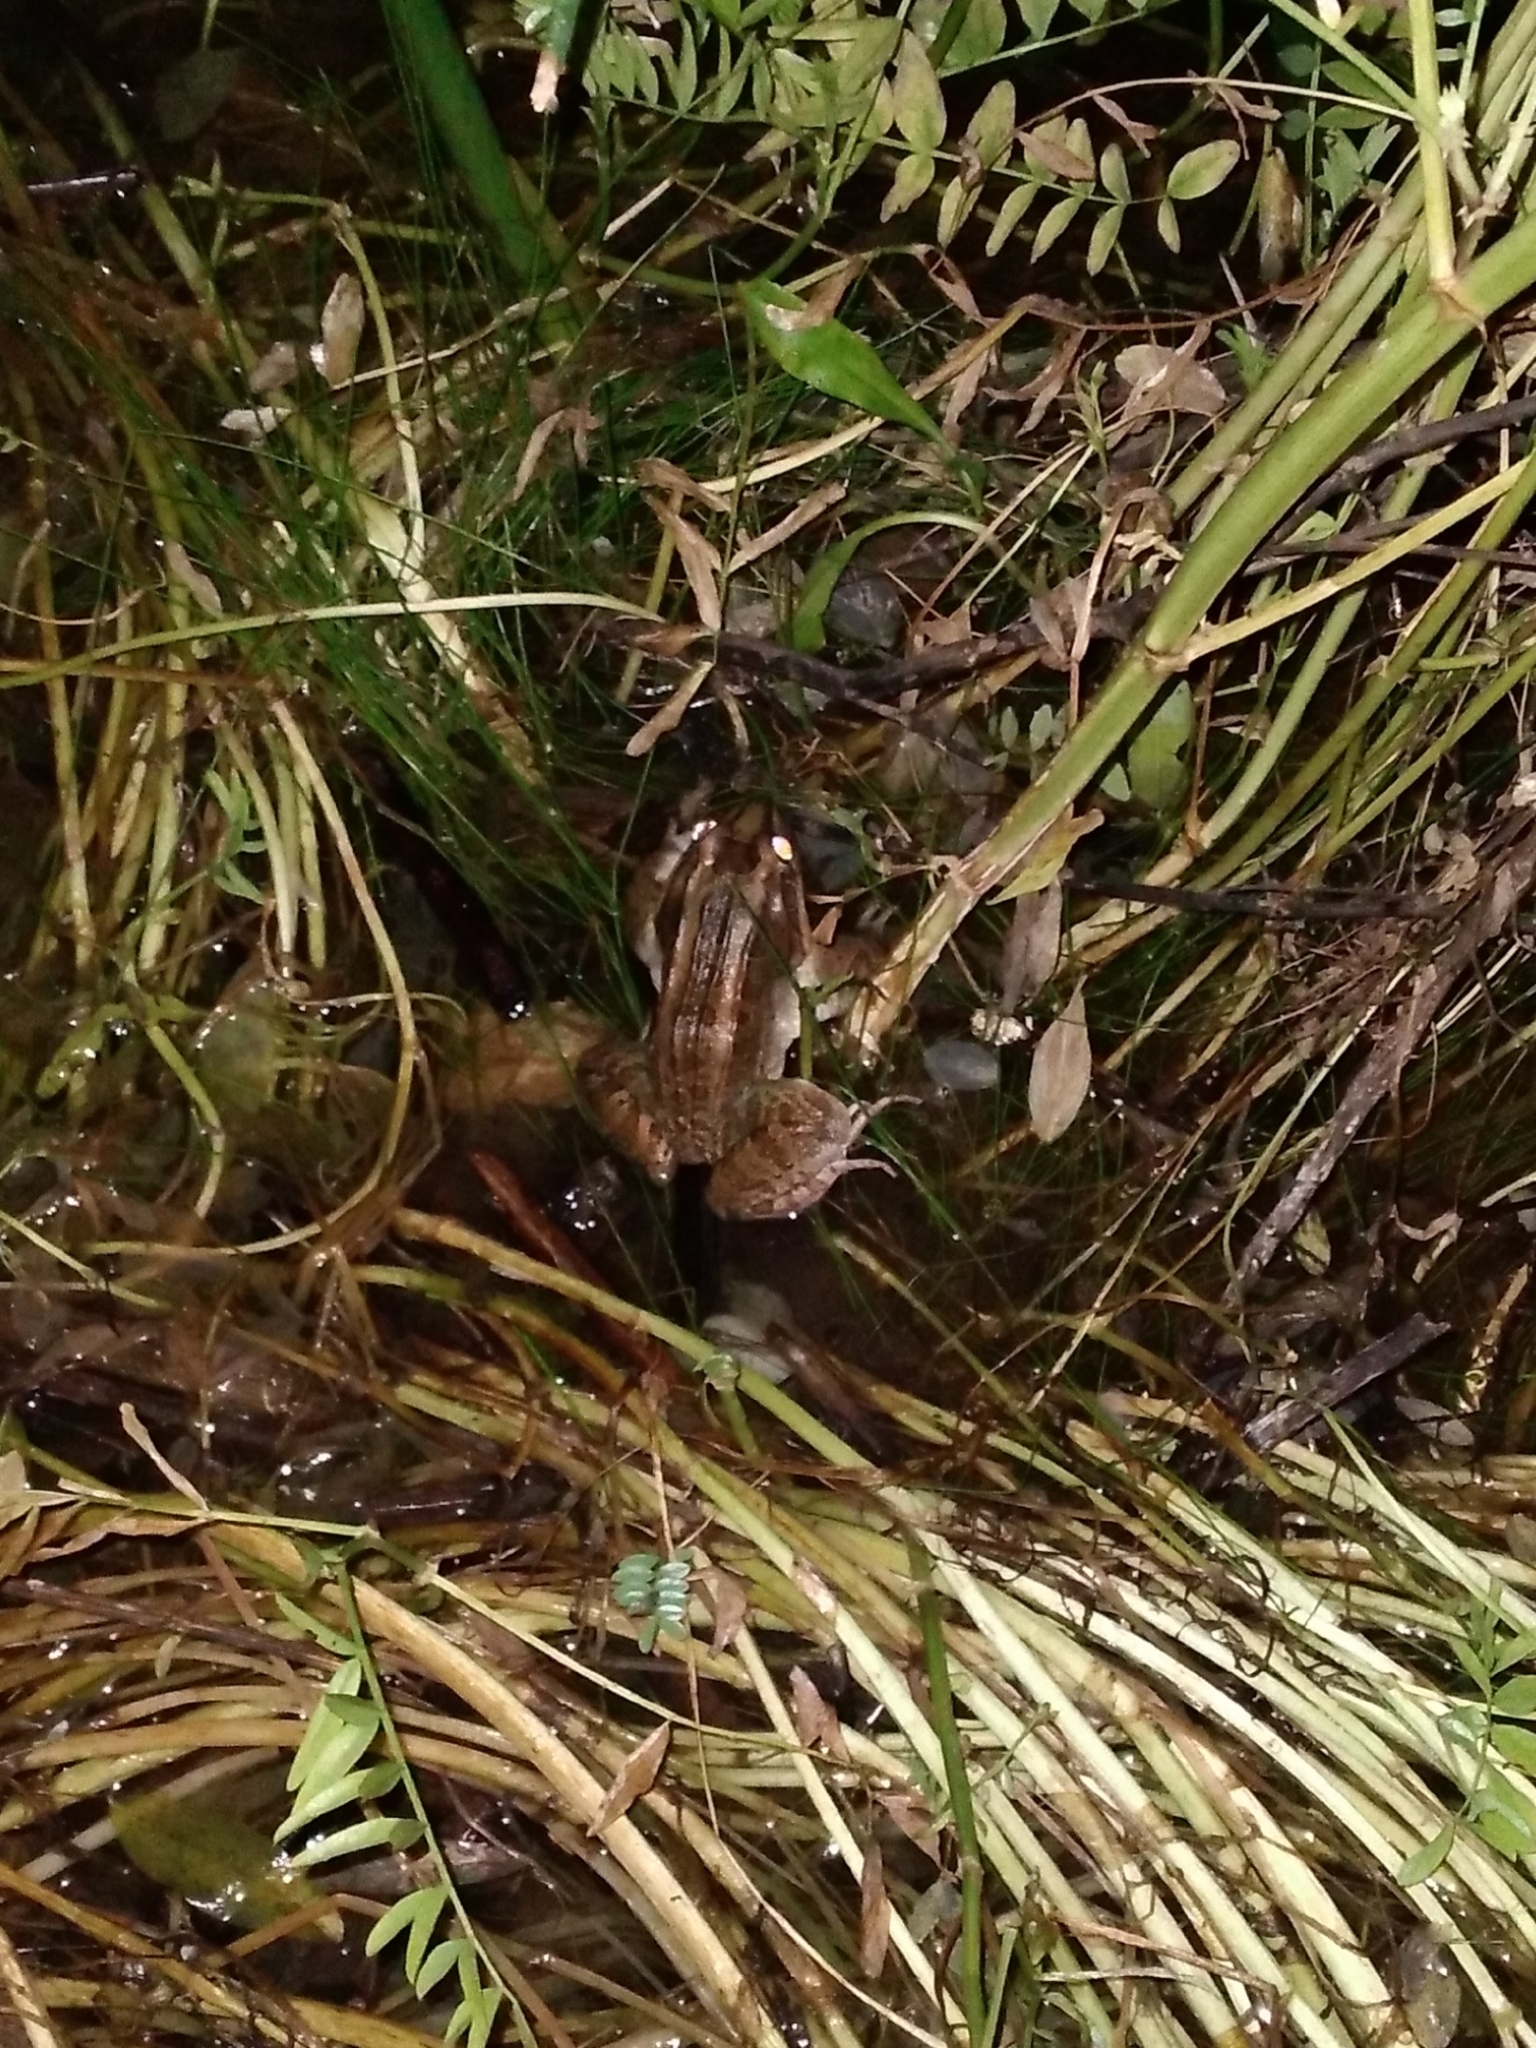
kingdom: Animalia
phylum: Chordata
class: Amphibia
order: Anura
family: Leptodactylidae
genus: Leptodactylus
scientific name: Leptodactylus luctator
